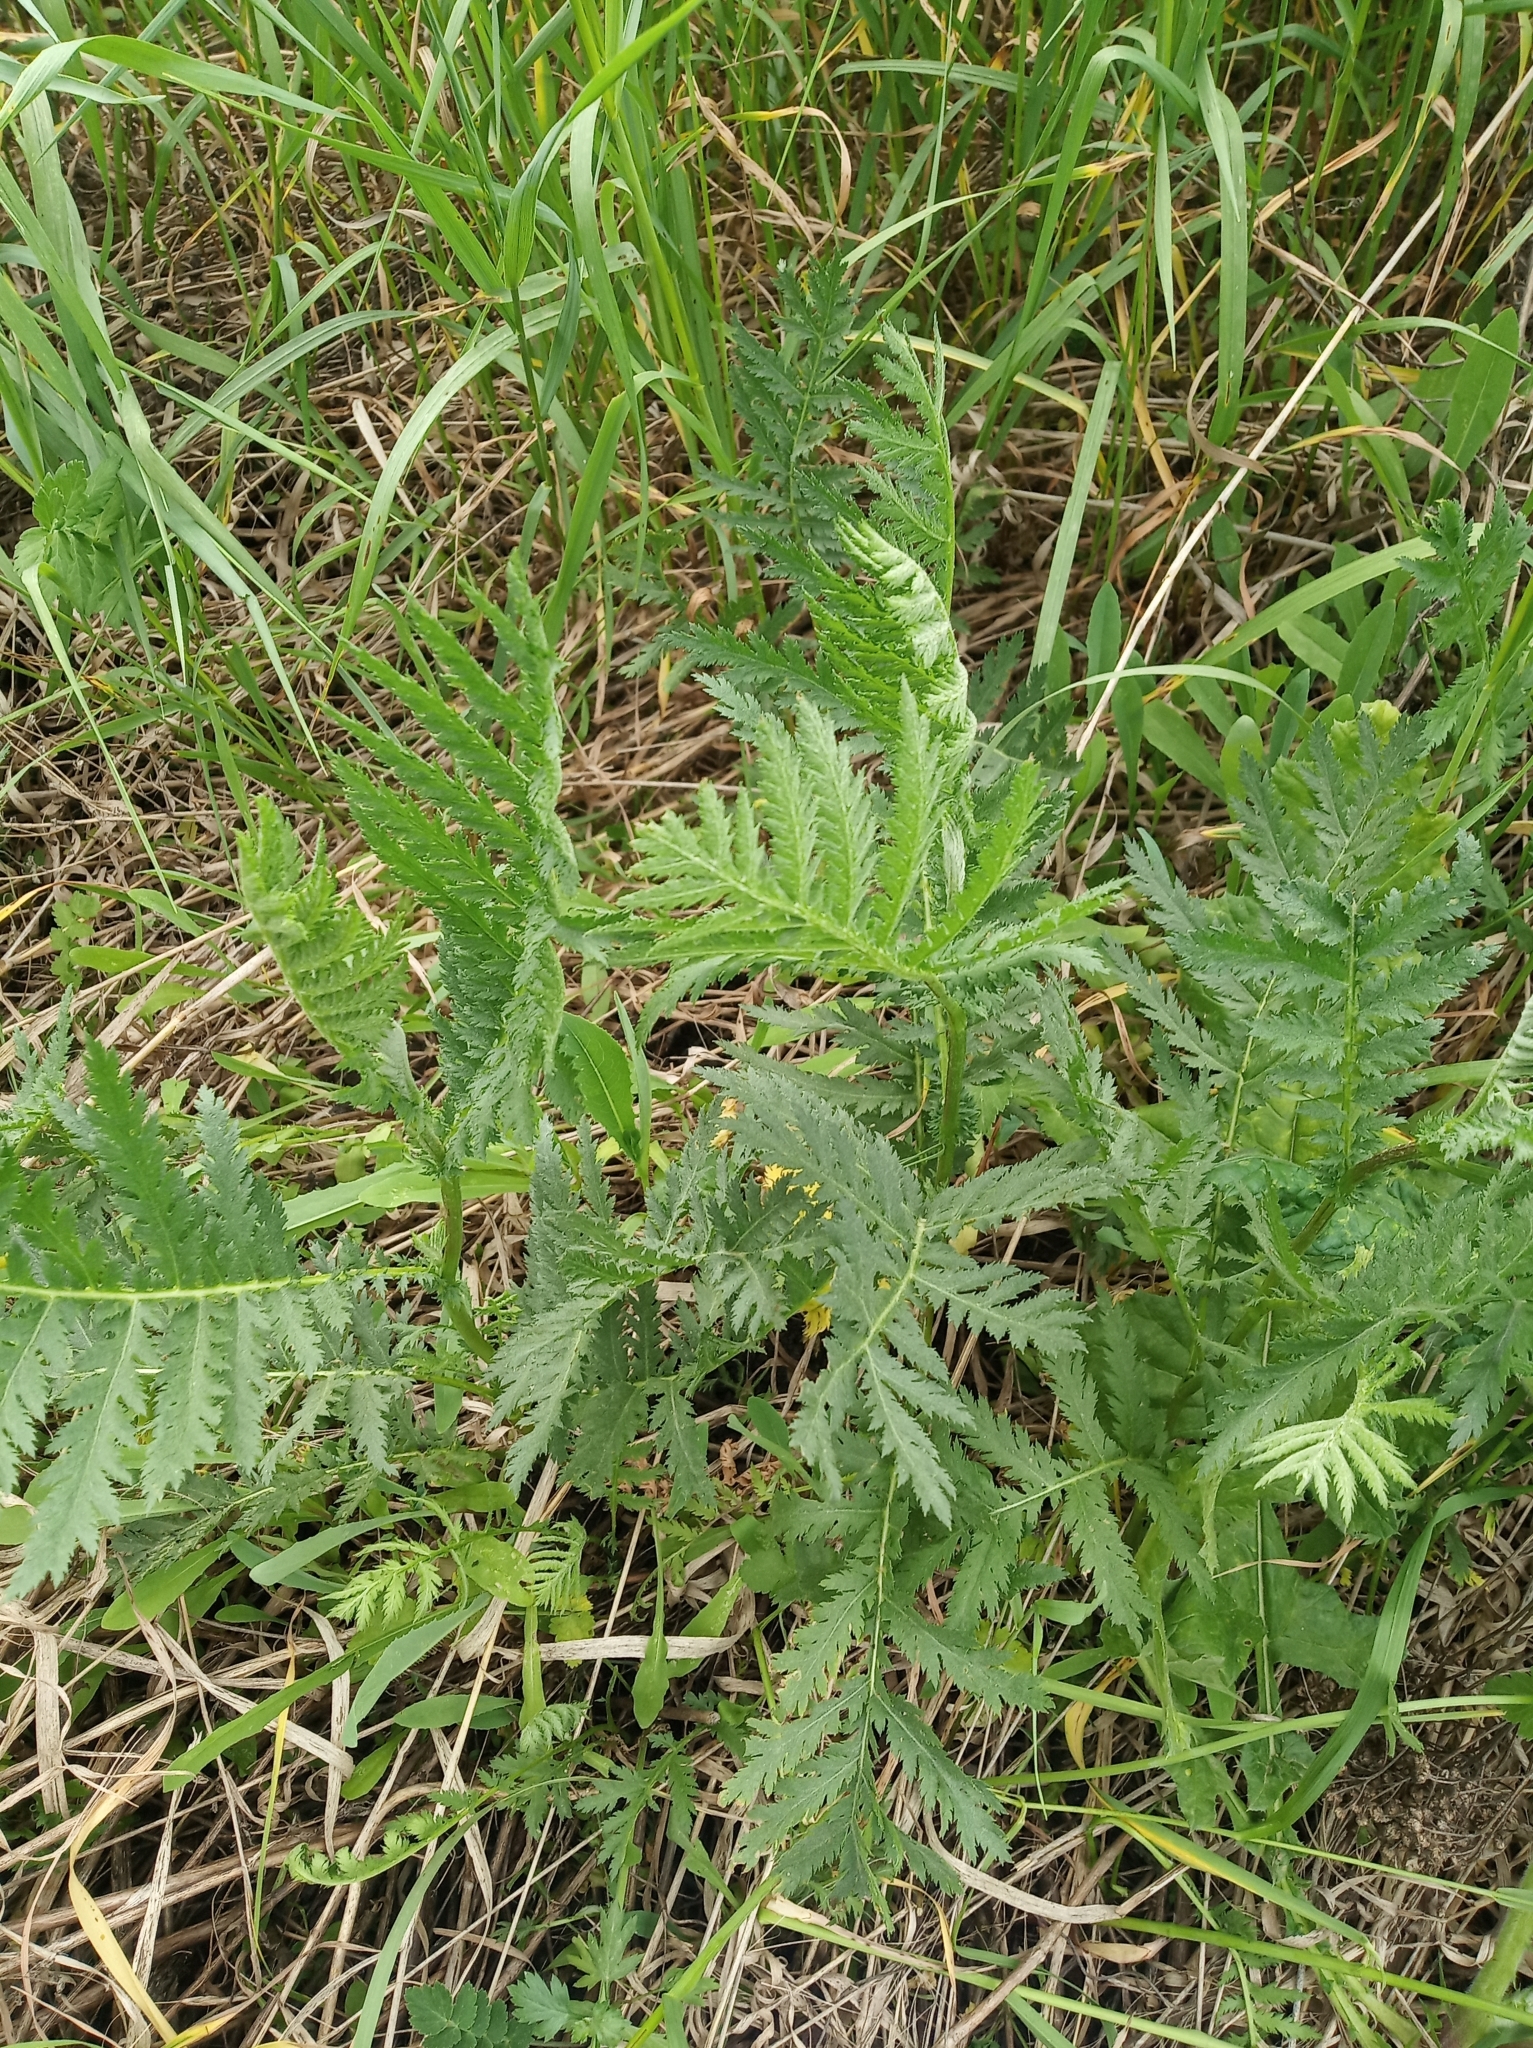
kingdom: Plantae
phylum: Tracheophyta
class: Magnoliopsida
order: Asterales
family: Asteraceae
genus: Tanacetum
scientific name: Tanacetum vulgare
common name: Common tansy
